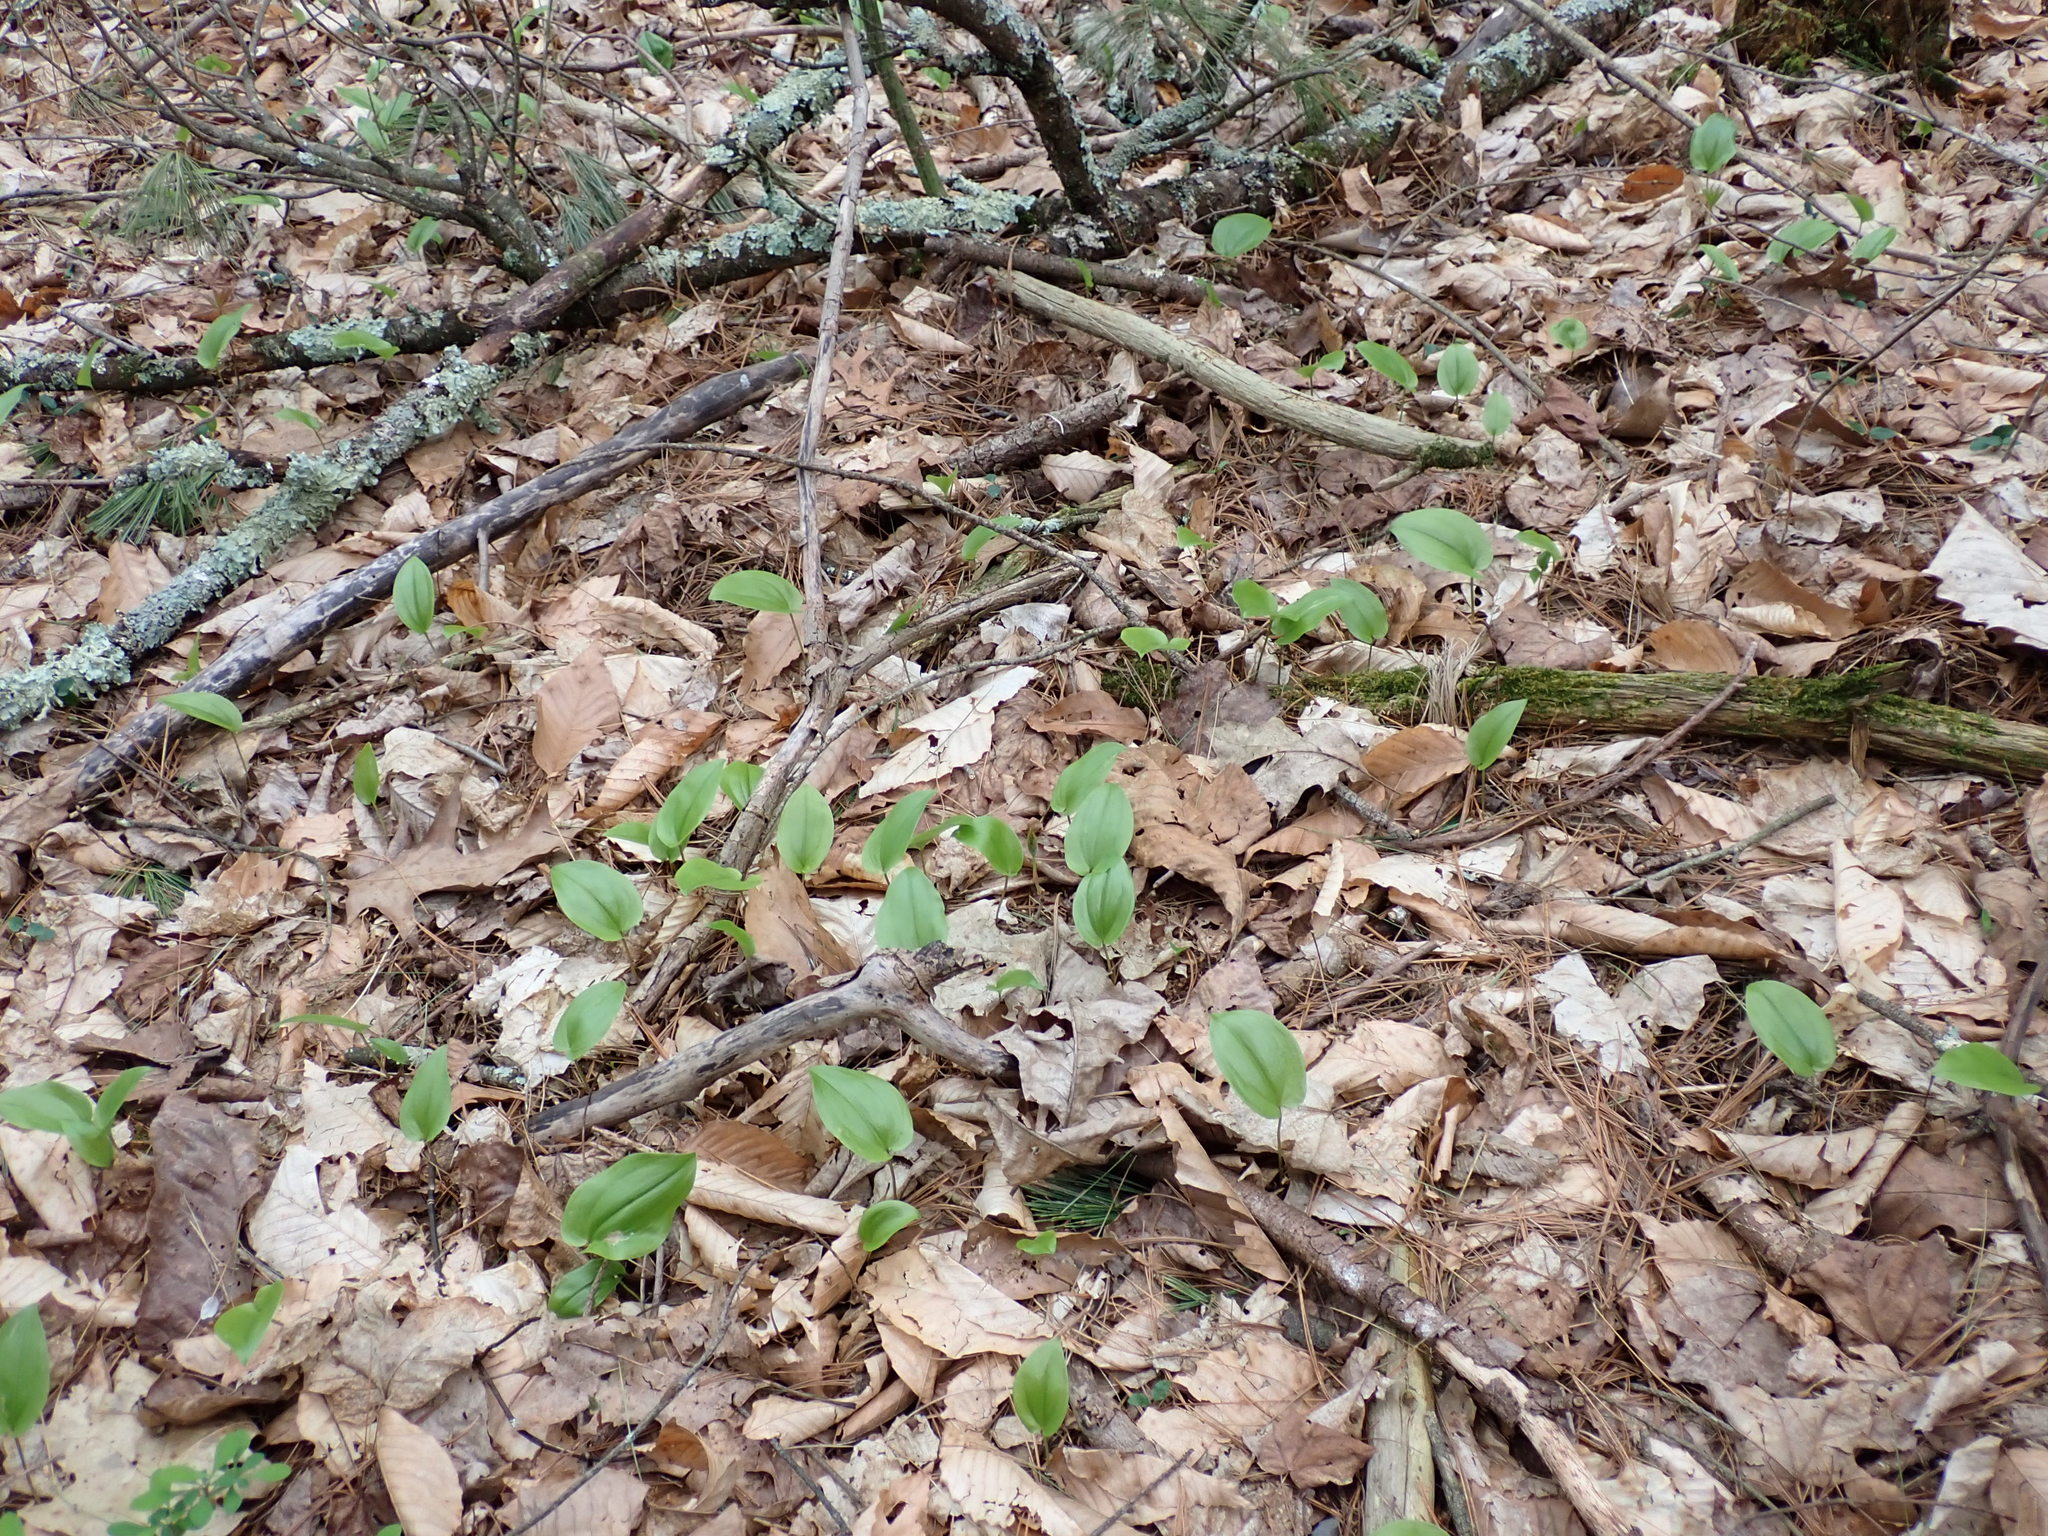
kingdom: Plantae
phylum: Tracheophyta
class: Liliopsida
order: Asparagales
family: Asparagaceae
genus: Maianthemum
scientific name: Maianthemum canadense
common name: False lily-of-the-valley
